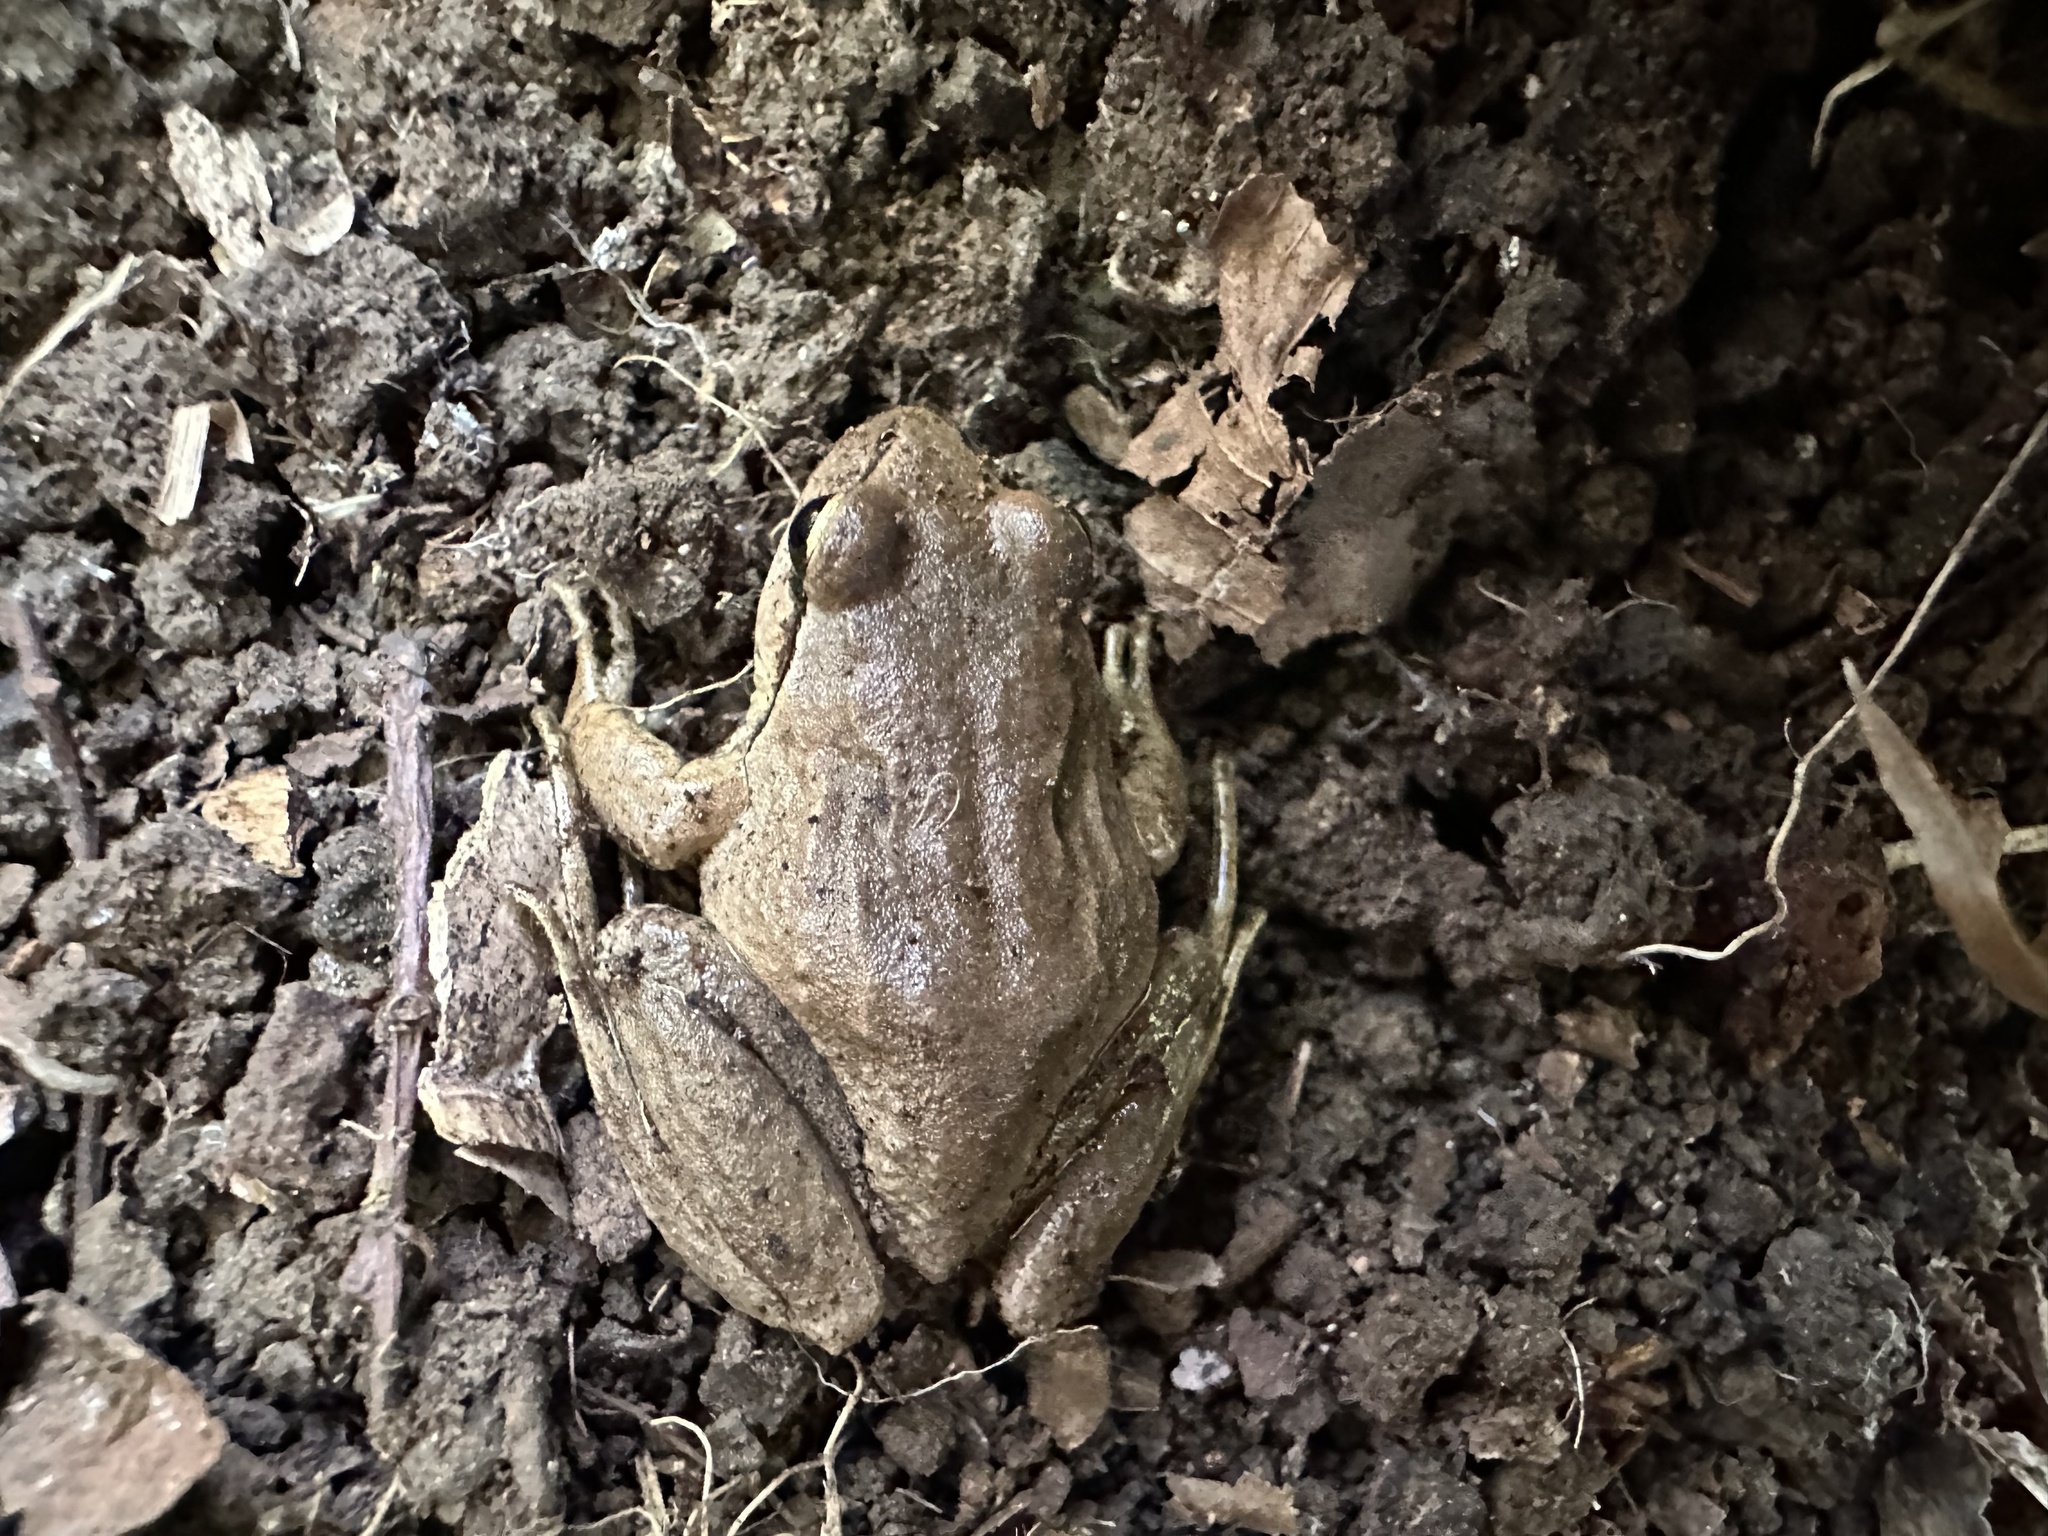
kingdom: Animalia
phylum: Chordata
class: Amphibia
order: Anura
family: Batrachylidae
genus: Batrachyla
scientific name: Batrachyla taeniata
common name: Banded wood frog
